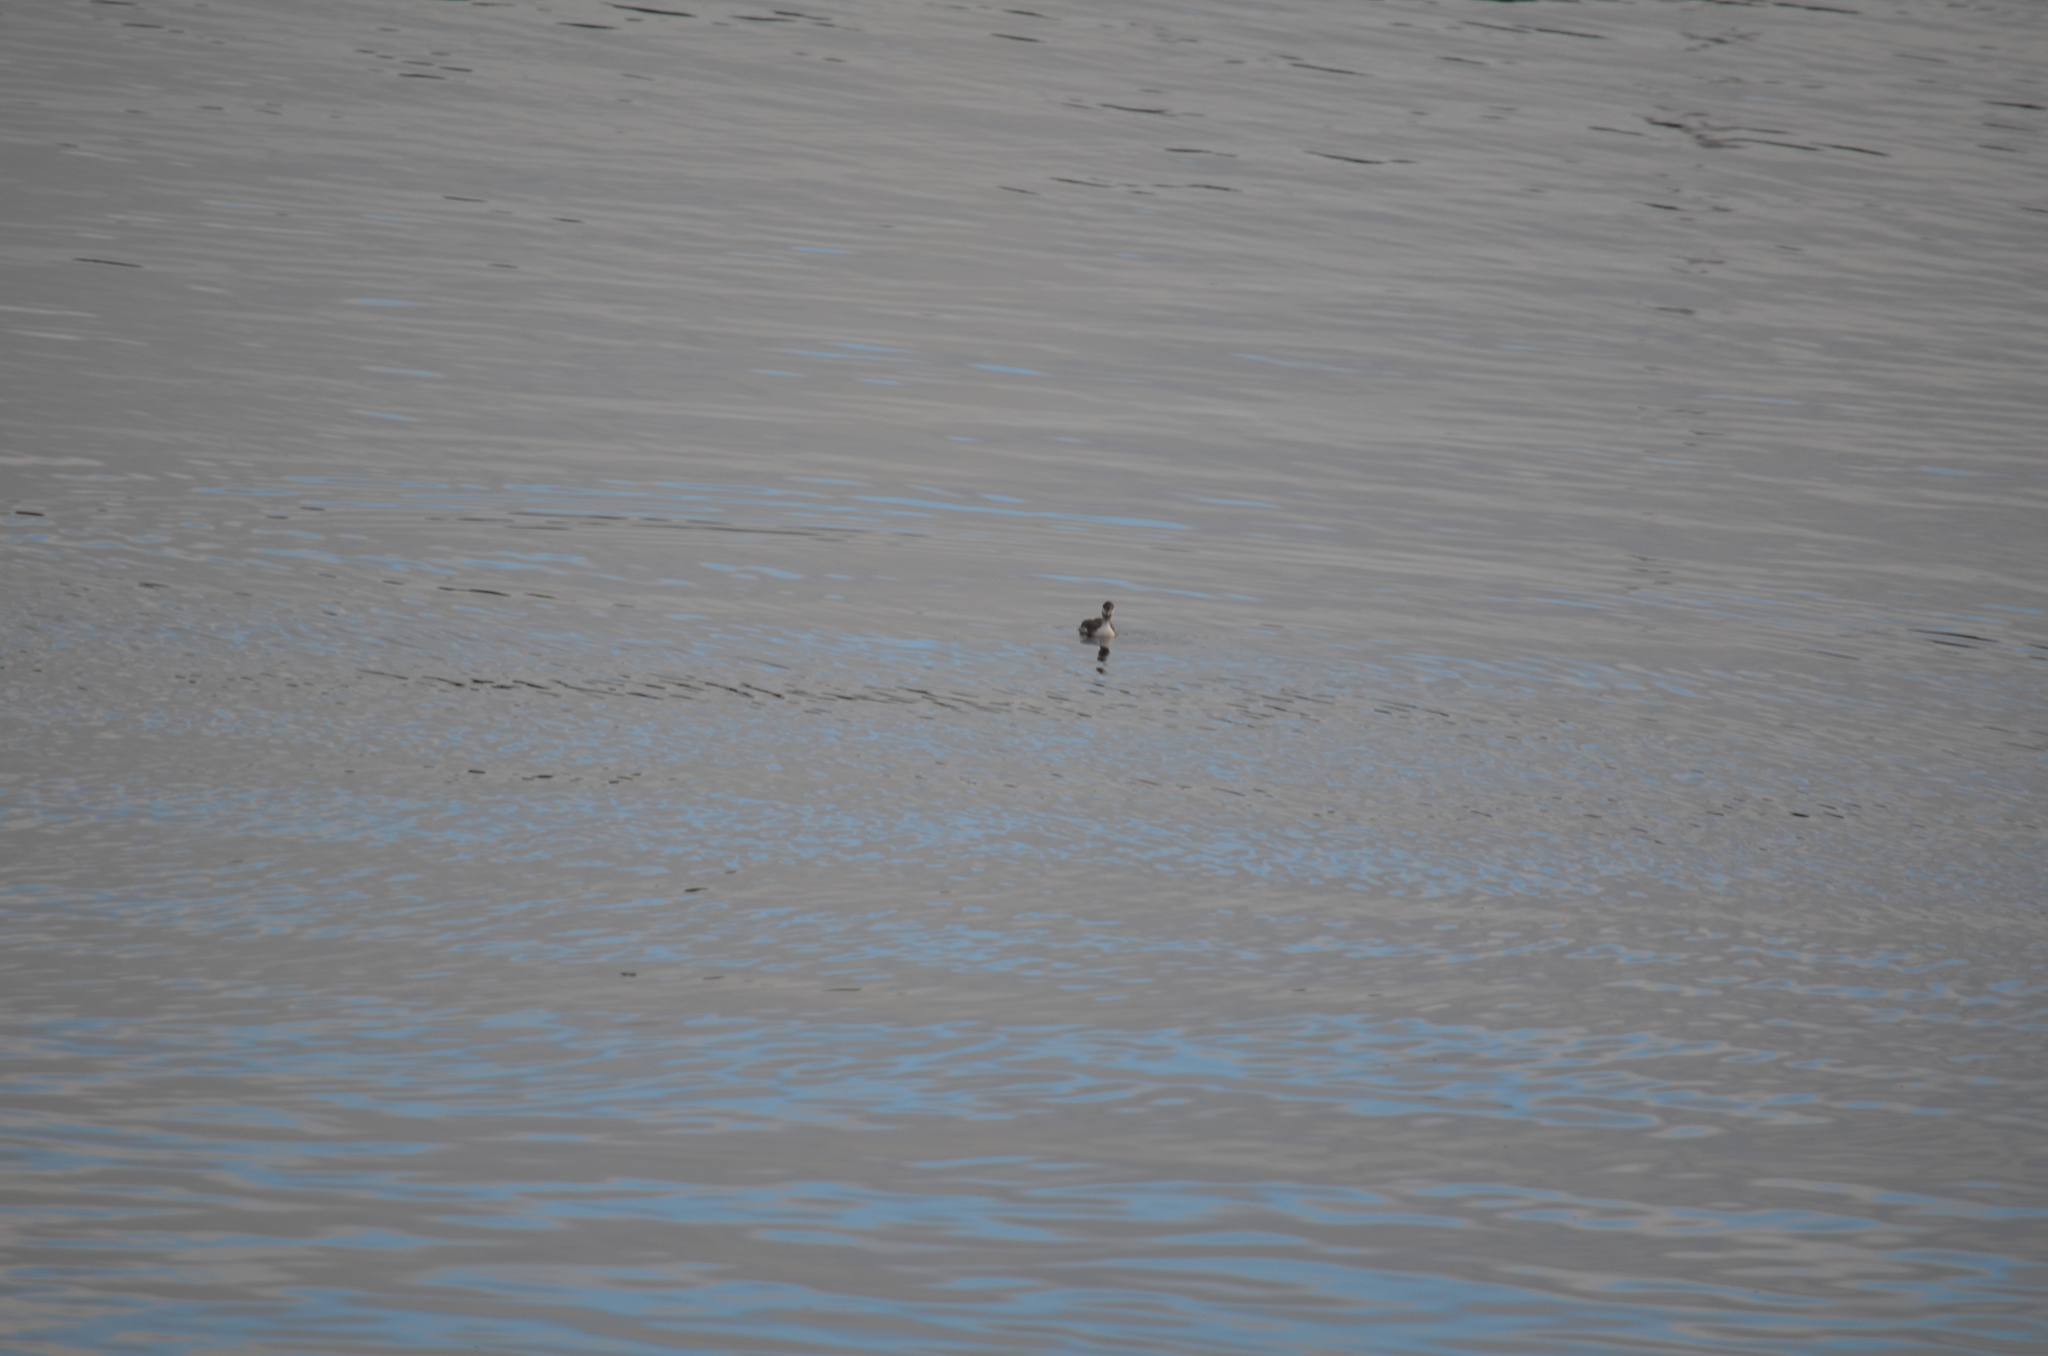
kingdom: Animalia
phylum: Chordata
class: Aves
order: Podicipediformes
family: Podicipedidae
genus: Podiceps
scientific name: Podiceps auritus
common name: Horned grebe
